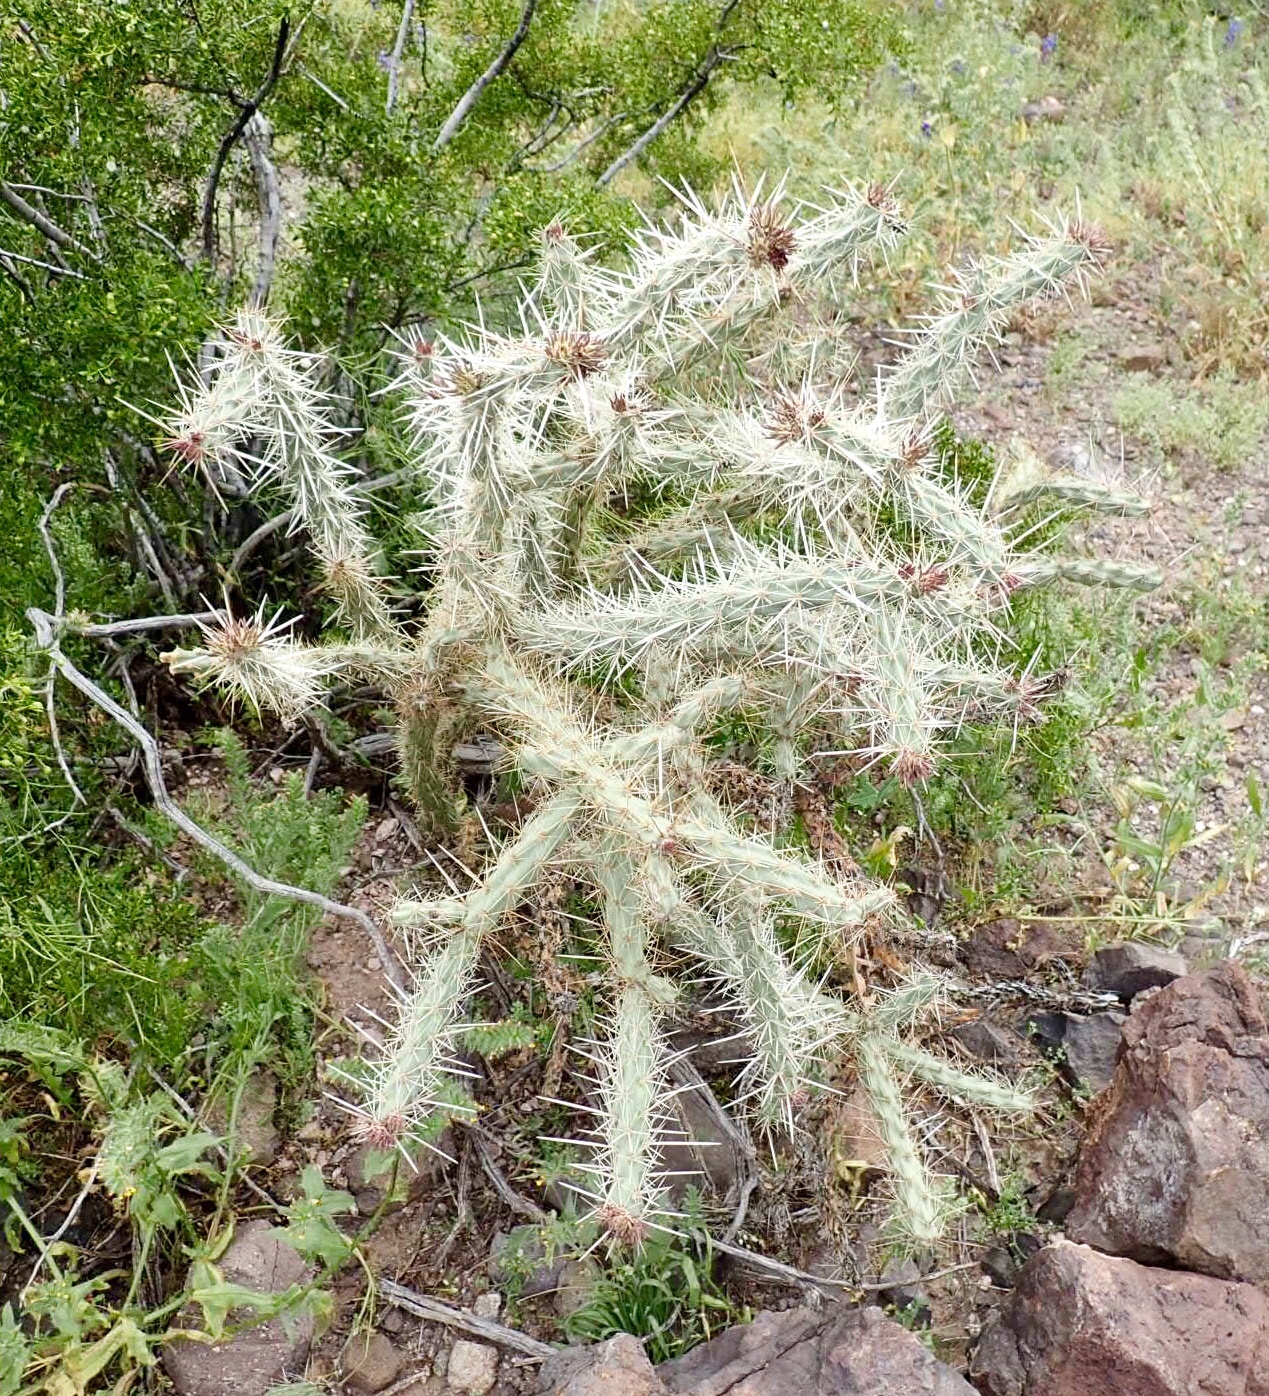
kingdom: Plantae
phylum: Tracheophyta
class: Magnoliopsida
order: Caryophyllales
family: Cactaceae
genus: Cylindropuntia
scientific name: Cylindropuntia acanthocarpa
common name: Buckhorn cholla
